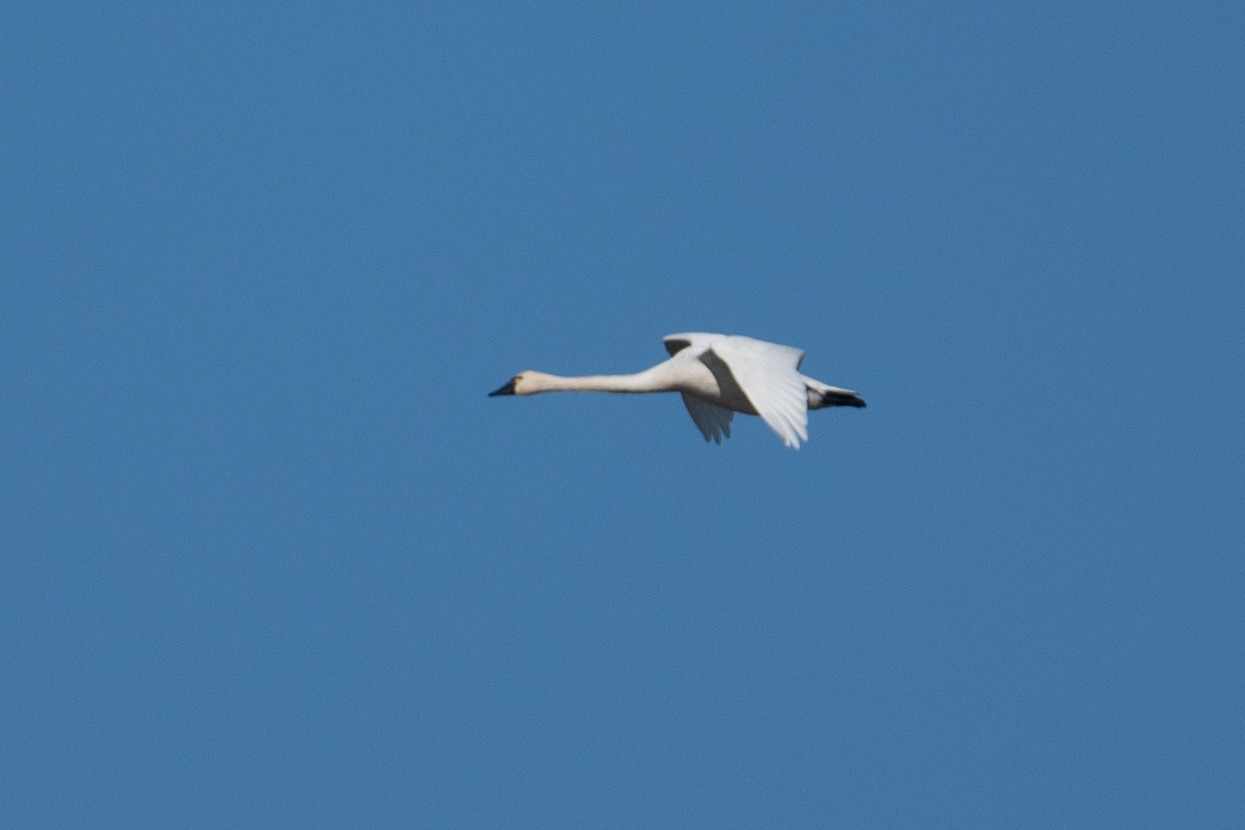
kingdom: Animalia
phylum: Chordata
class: Aves
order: Anseriformes
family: Anatidae
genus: Cygnus
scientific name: Cygnus columbianus
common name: Tundra swan
